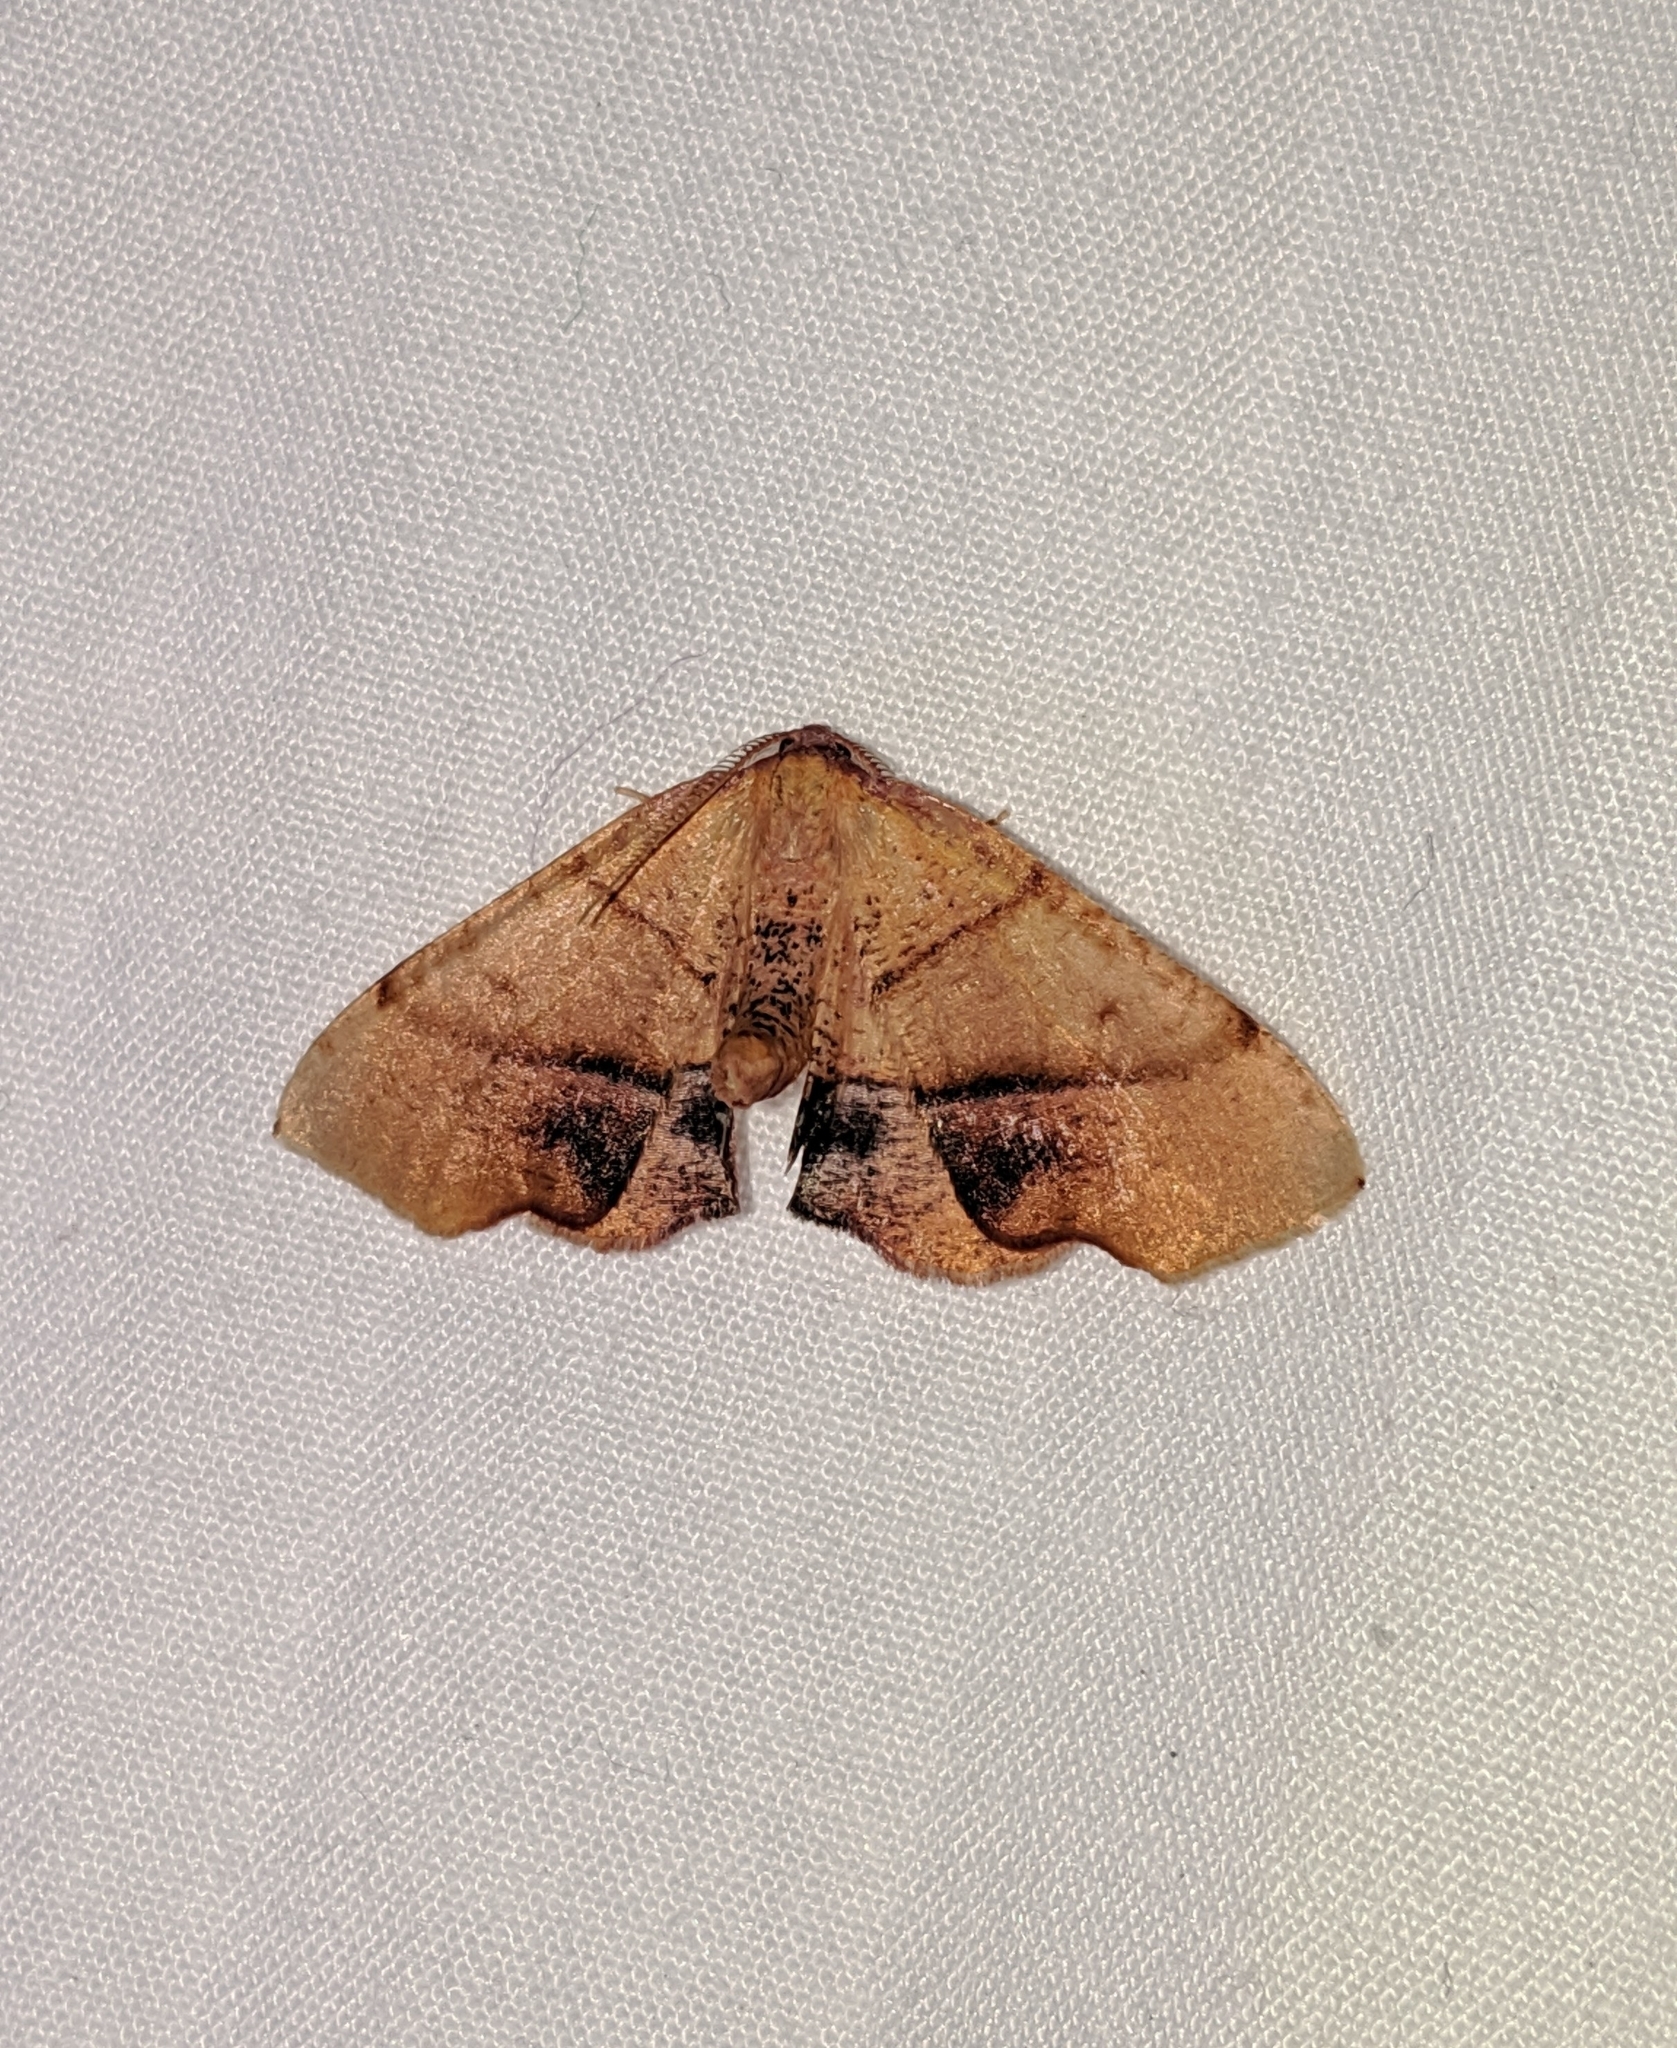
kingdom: Animalia
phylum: Arthropoda
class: Insecta
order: Lepidoptera
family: Geometridae
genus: Plagodis
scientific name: Plagodis phlogosaria
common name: Straight-lined plagodis
